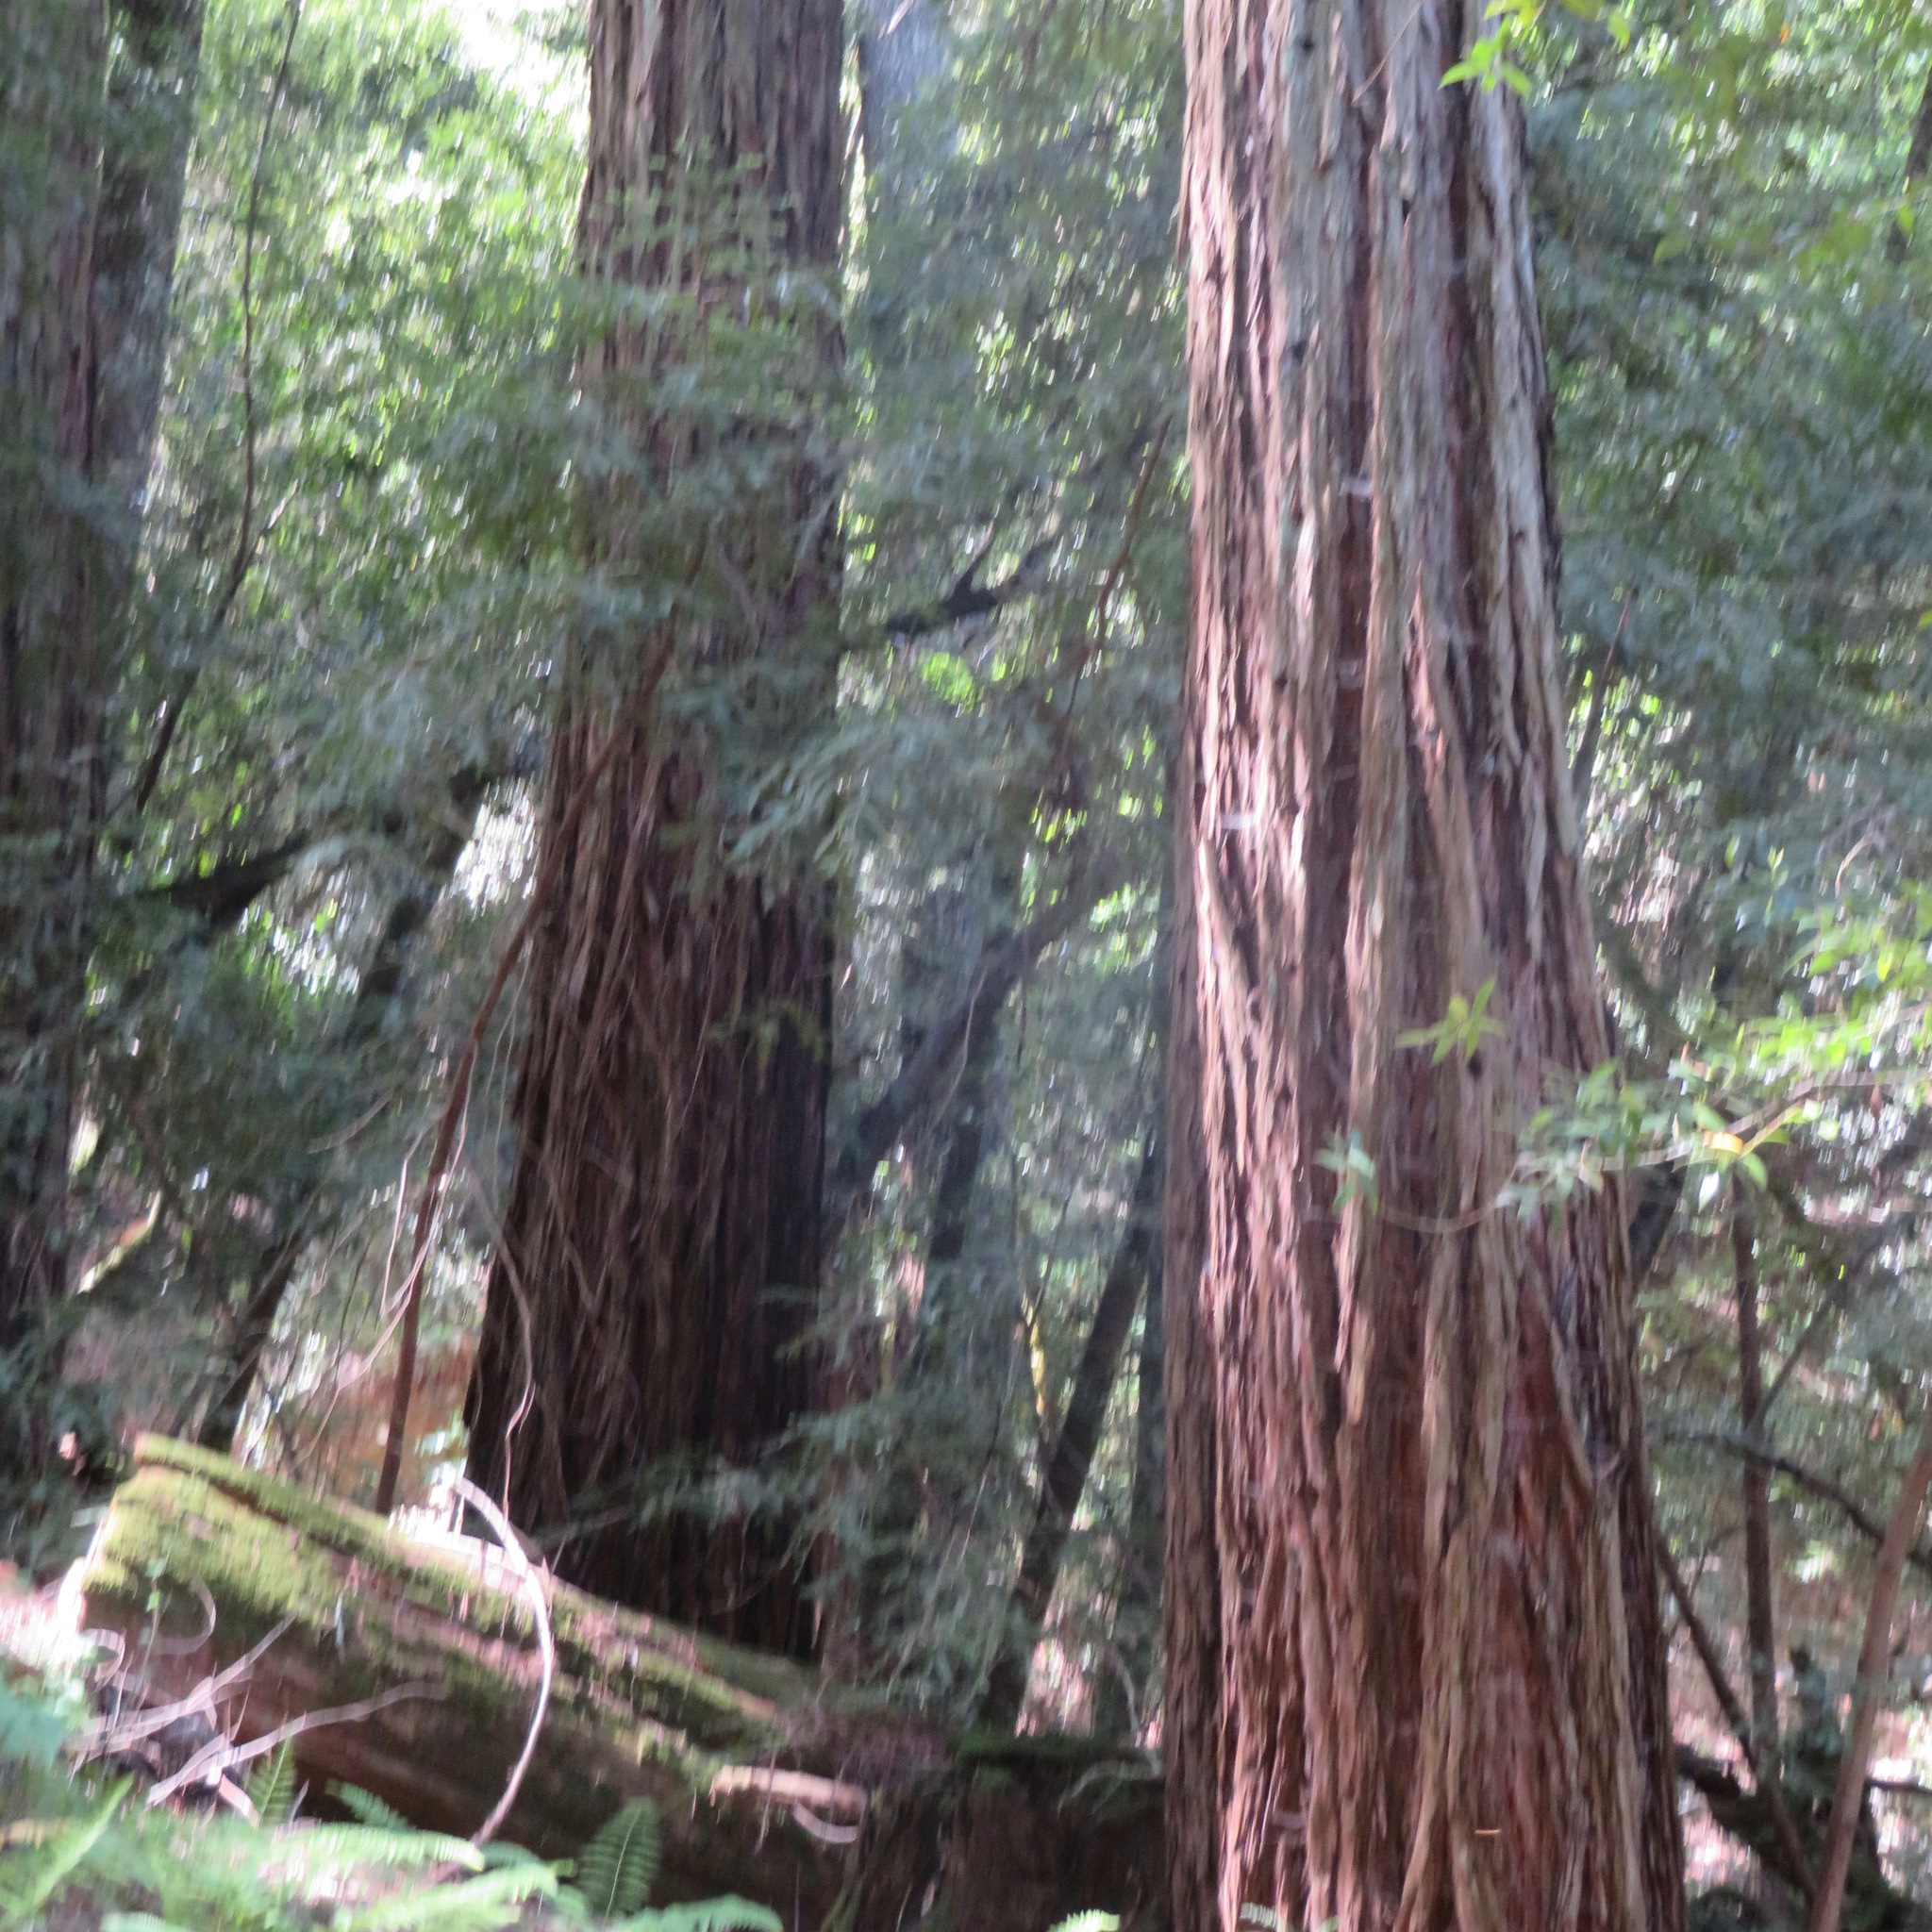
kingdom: Plantae
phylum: Tracheophyta
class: Pinopsida
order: Pinales
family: Cupressaceae
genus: Sequoia
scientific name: Sequoia sempervirens
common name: Coast redwood
